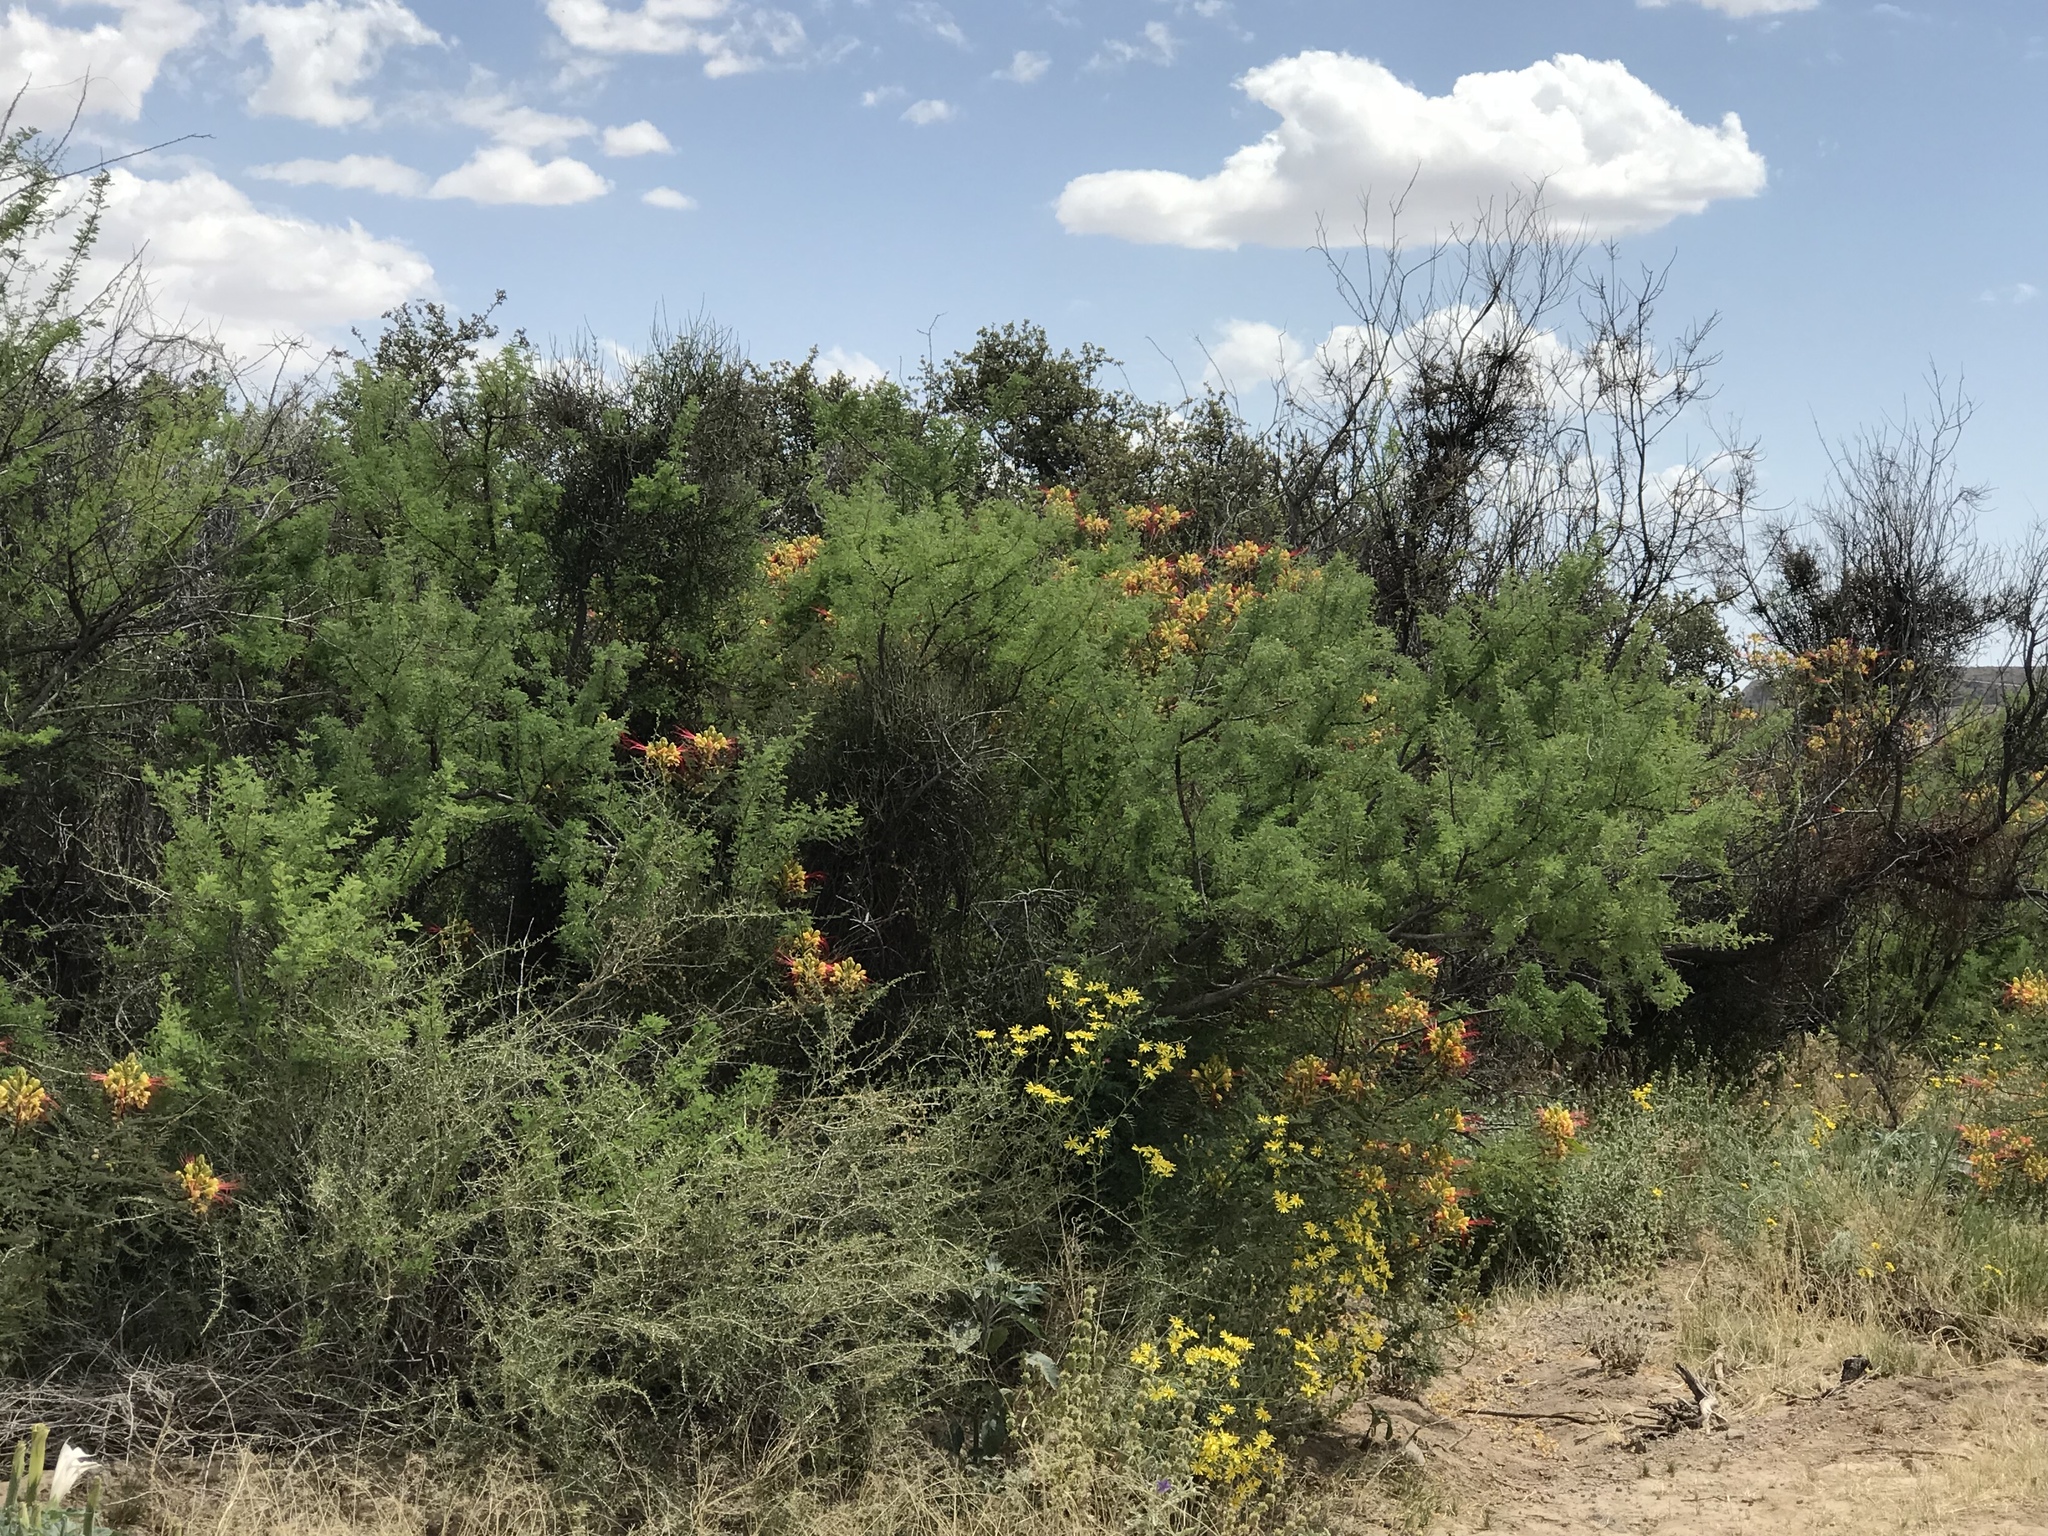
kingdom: Plantae
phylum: Tracheophyta
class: Magnoliopsida
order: Fabales
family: Fabaceae
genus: Erythrostemon
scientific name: Erythrostemon gilliesii
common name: Bird-of-paradise shrub
